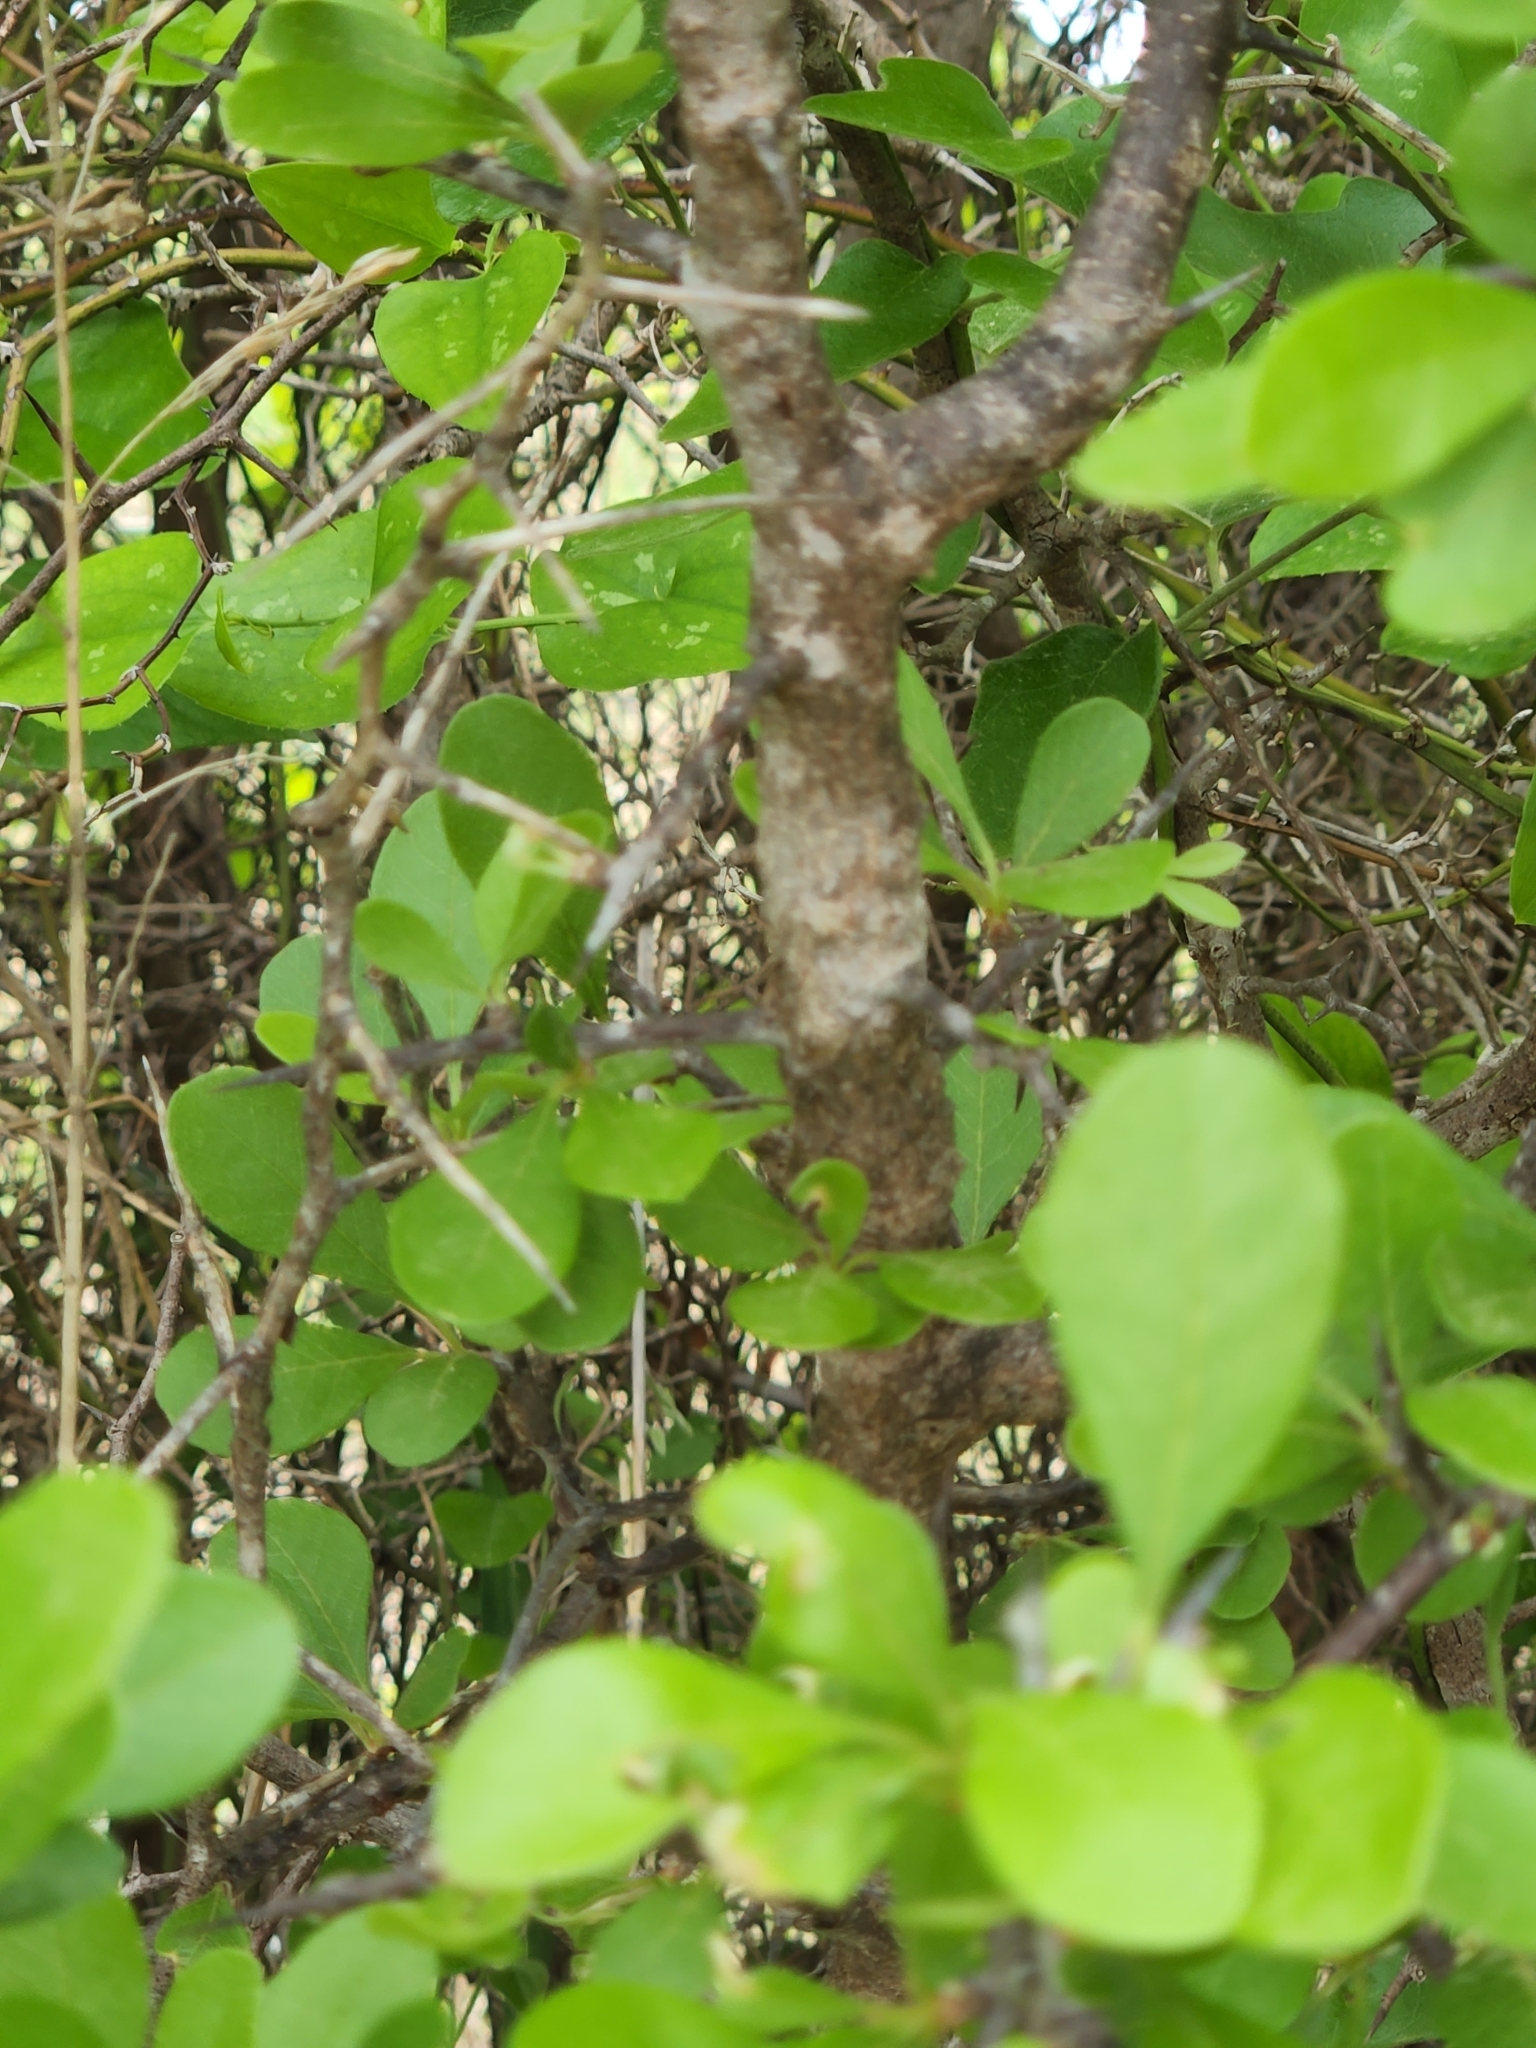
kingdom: Plantae
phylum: Tracheophyta
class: Magnoliopsida
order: Ericales
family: Sapotaceae
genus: Sideroxylon
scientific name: Sideroxylon lanuginosum
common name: Chittamwood
